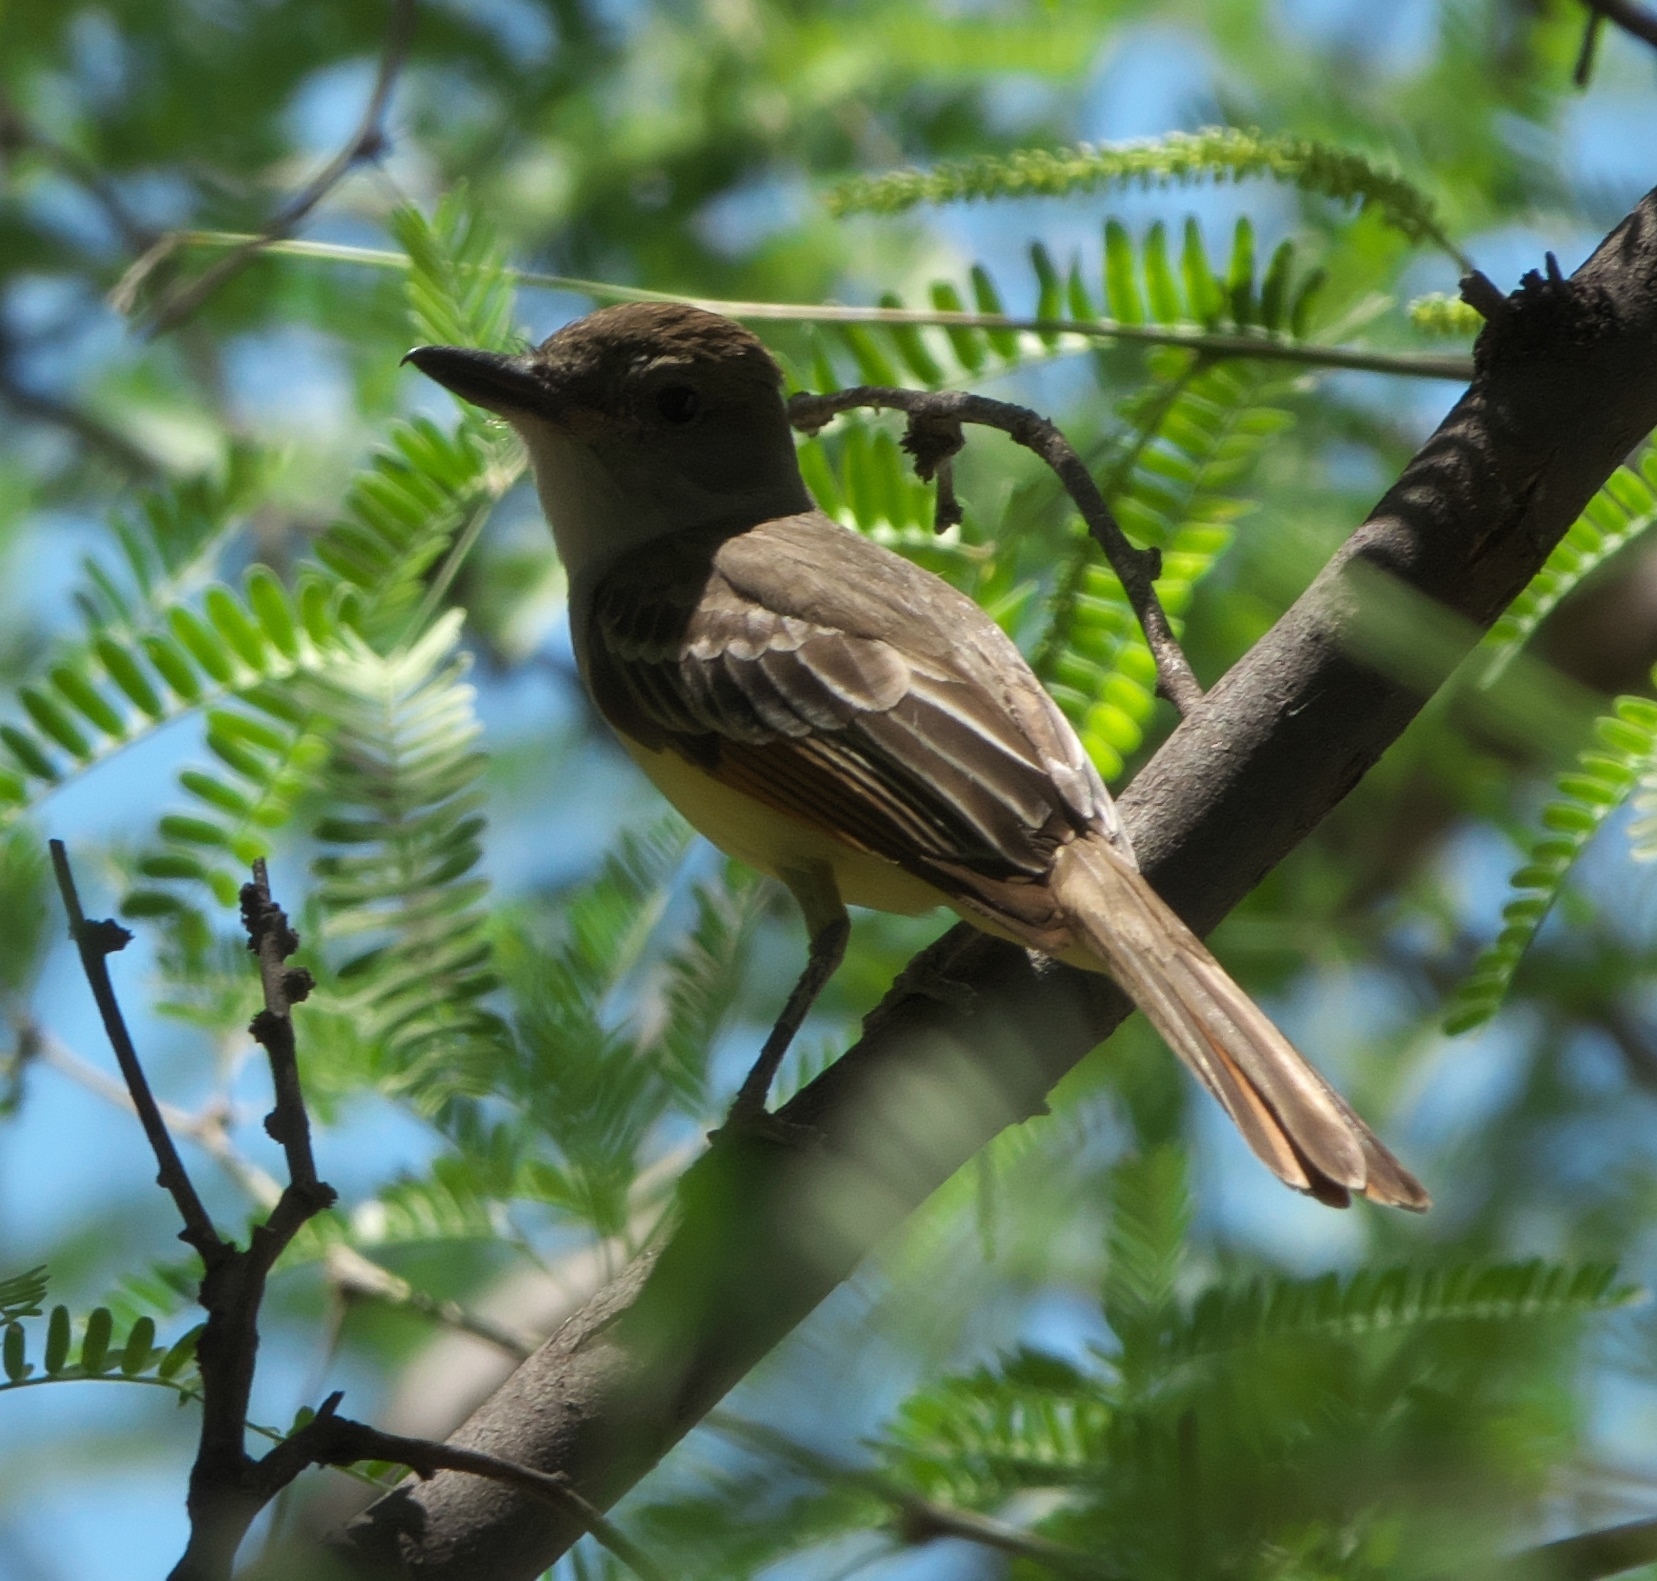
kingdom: Animalia
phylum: Chordata
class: Aves
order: Passeriformes
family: Tyrannidae
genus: Myiarchus
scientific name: Myiarchus tyrannulus
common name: Brown-crested flycatcher
